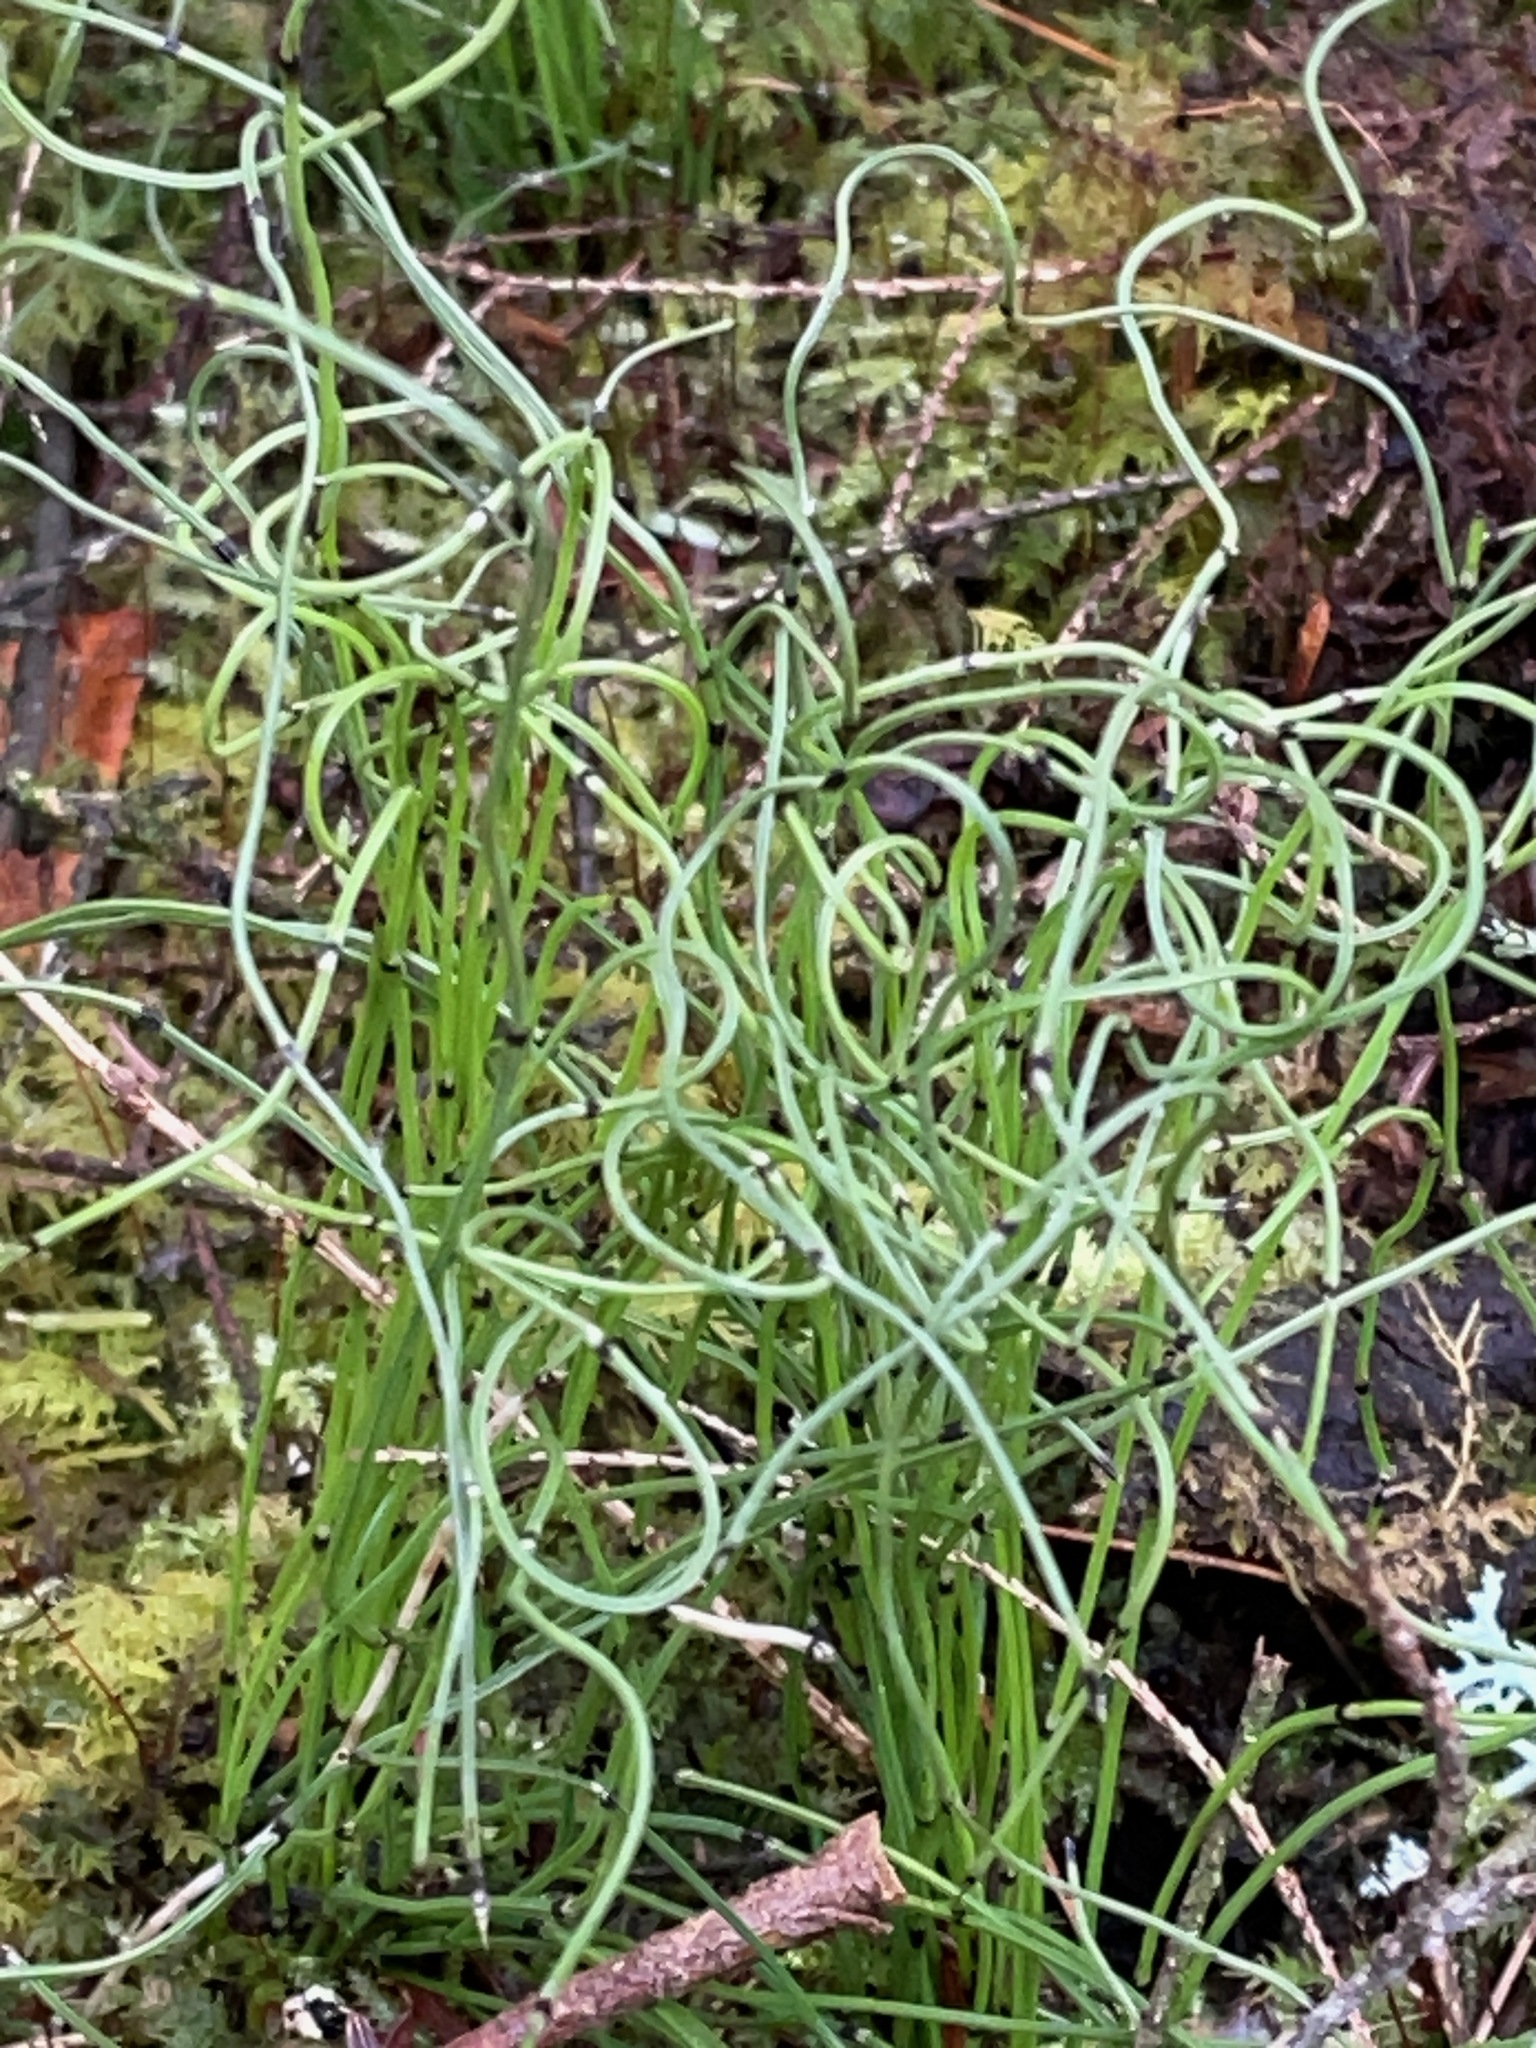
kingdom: Plantae
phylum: Tracheophyta
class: Polypodiopsida
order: Equisetales
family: Equisetaceae
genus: Equisetum
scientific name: Equisetum scirpoides
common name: Delicate horsetail
